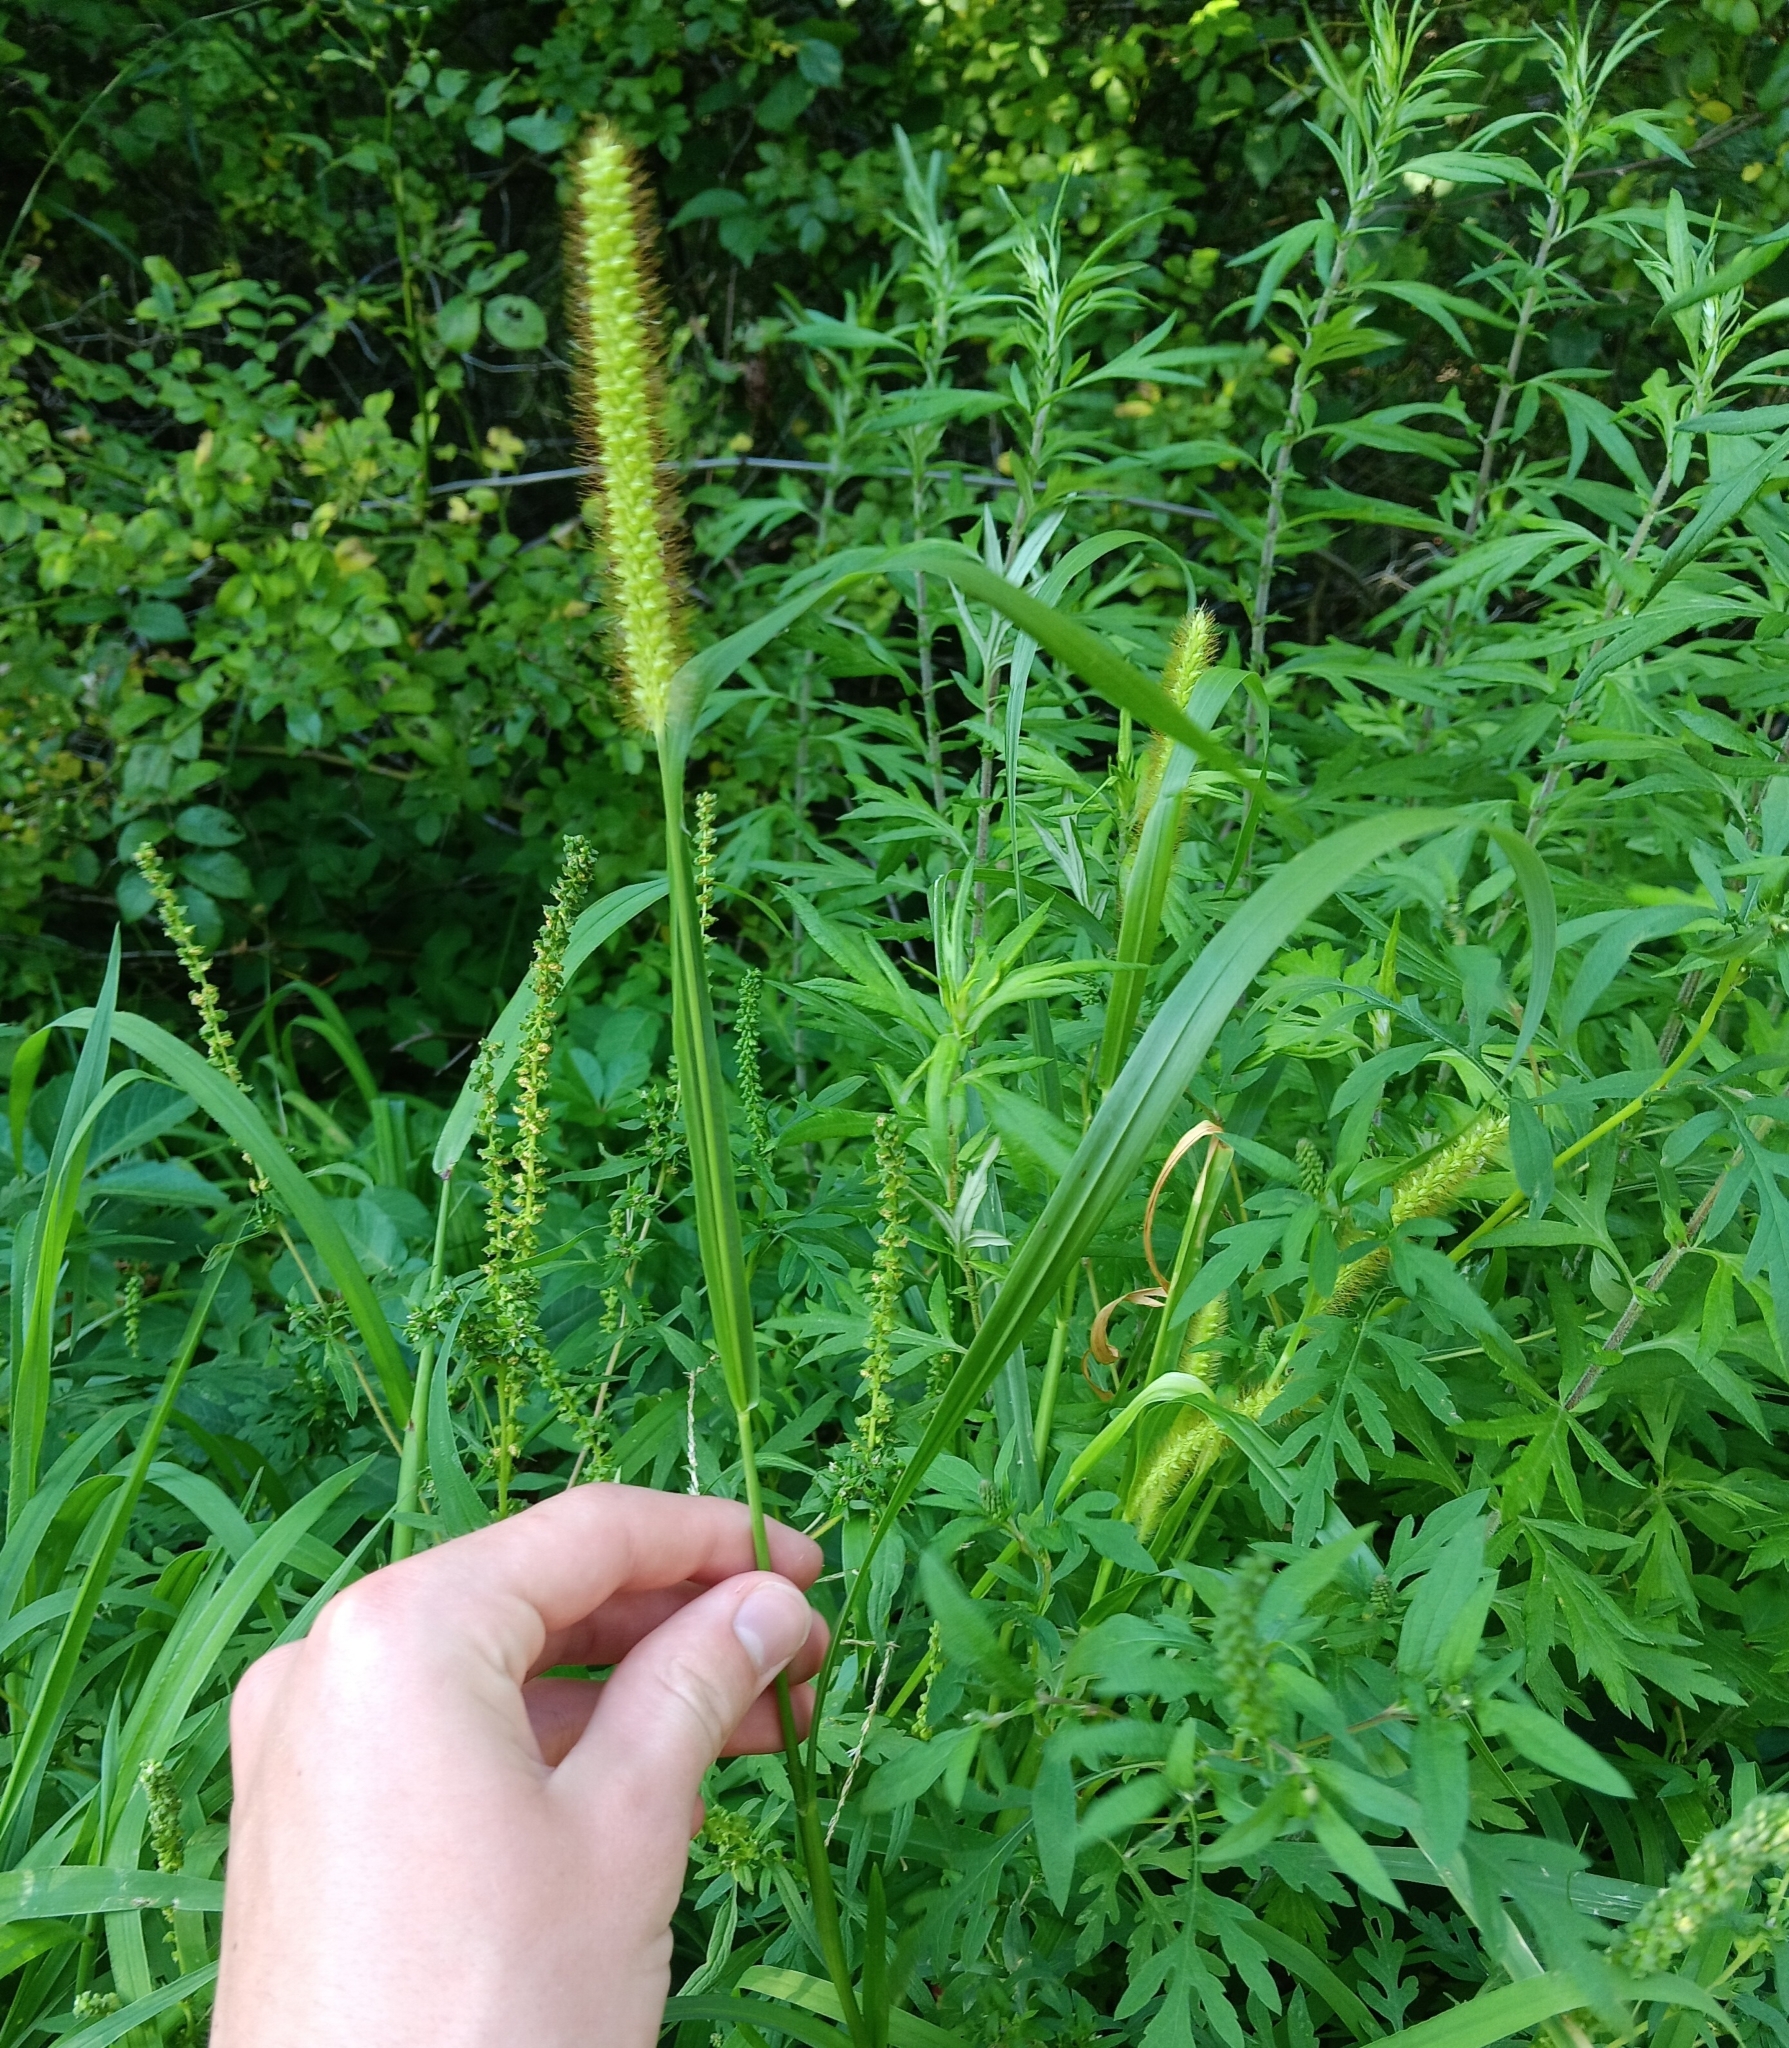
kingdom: Plantae
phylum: Tracheophyta
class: Liliopsida
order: Poales
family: Poaceae
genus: Setaria
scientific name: Setaria pumila
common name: Yellow bristle-grass
